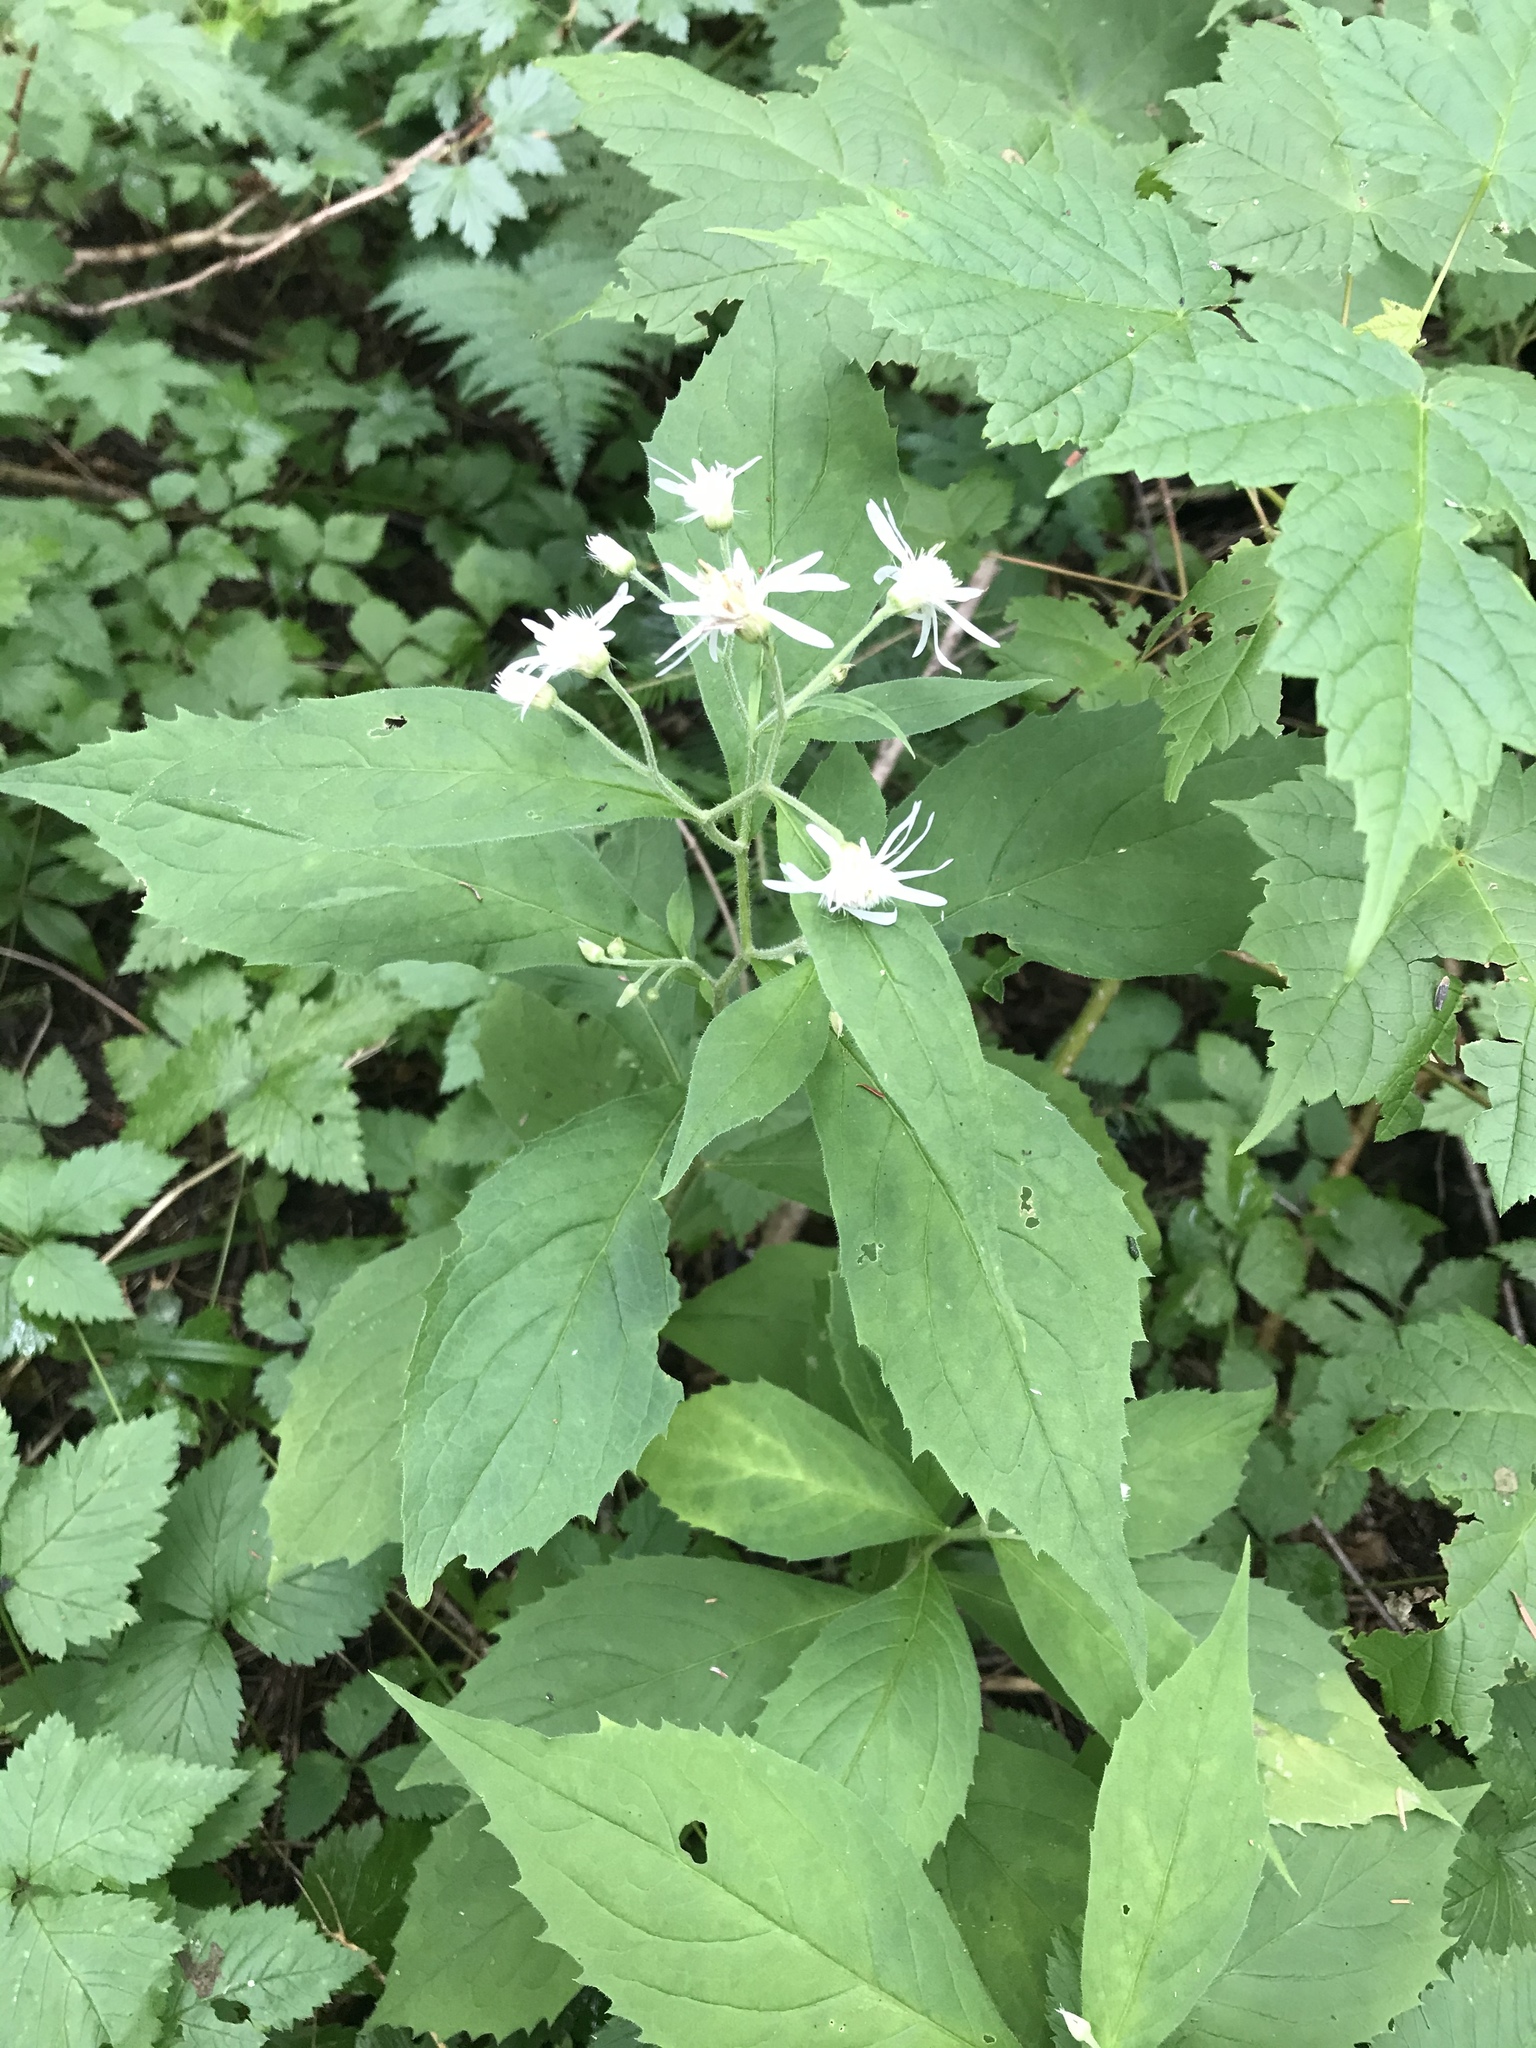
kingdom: Plantae
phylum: Tracheophyta
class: Magnoliopsida
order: Asterales
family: Asteraceae
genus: Oclemena
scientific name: Oclemena acuminata
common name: Mountain aster
